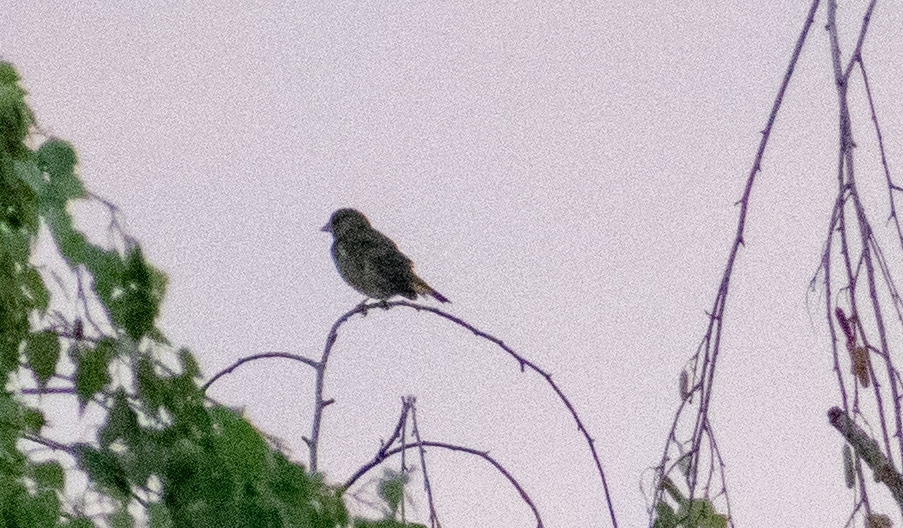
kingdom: Plantae
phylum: Tracheophyta
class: Liliopsida
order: Poales
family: Poaceae
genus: Chloris
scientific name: Chloris chloris
